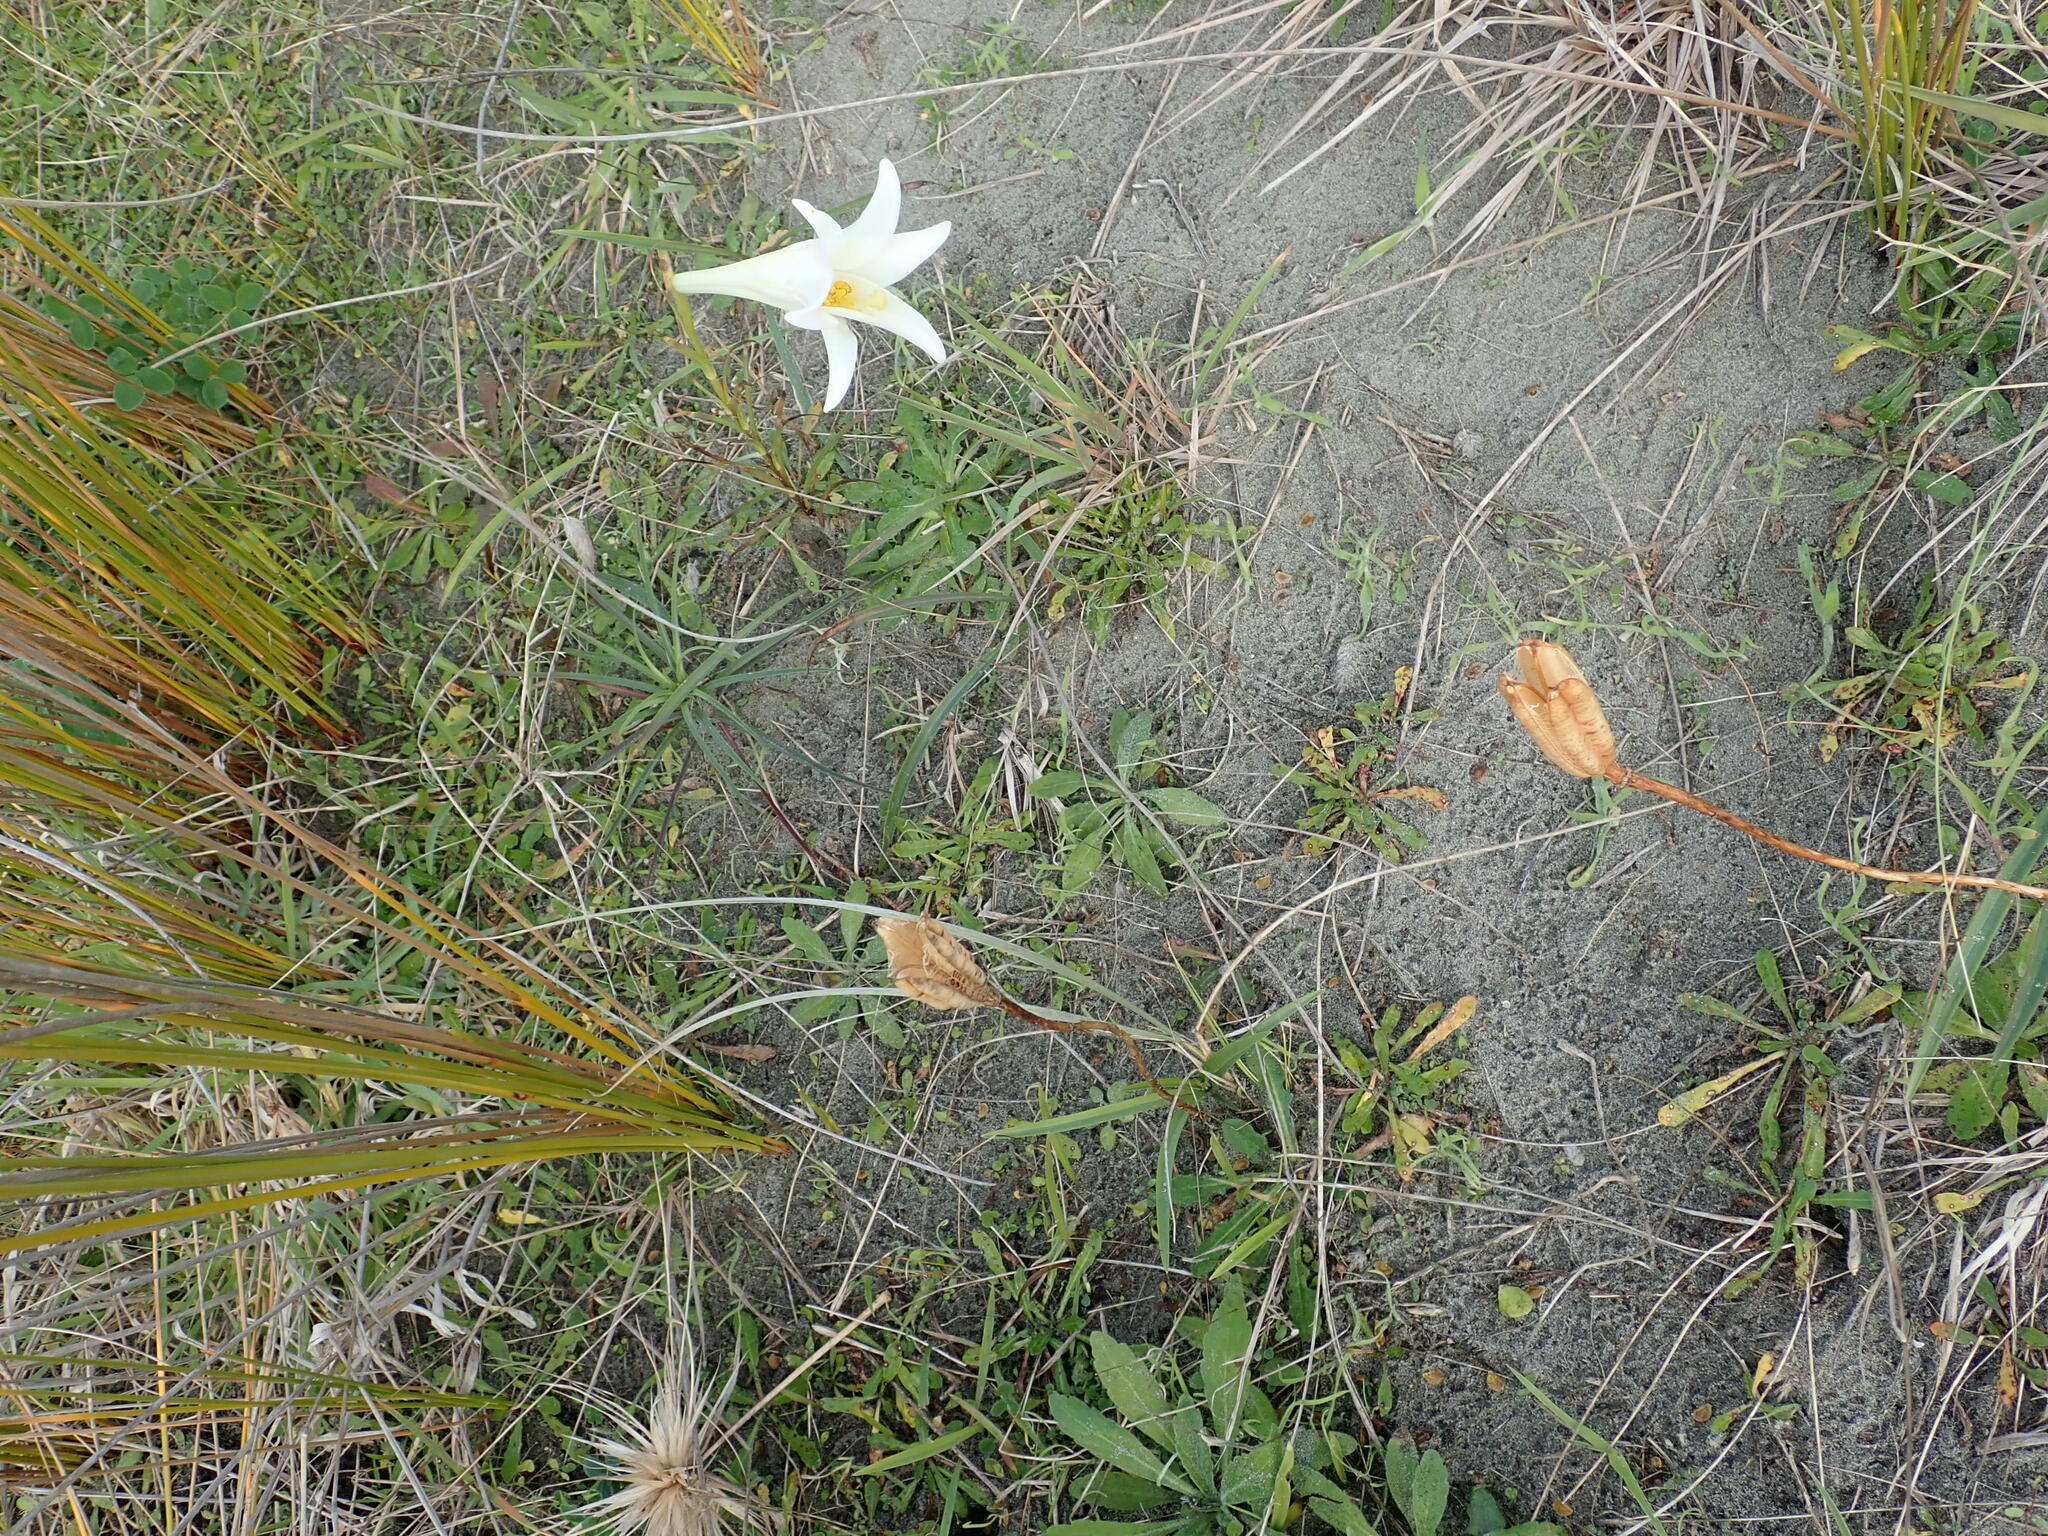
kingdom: Plantae
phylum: Tracheophyta
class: Liliopsida
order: Liliales
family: Liliaceae
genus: Lilium
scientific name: Lilium formosanum
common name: Formosa lily
